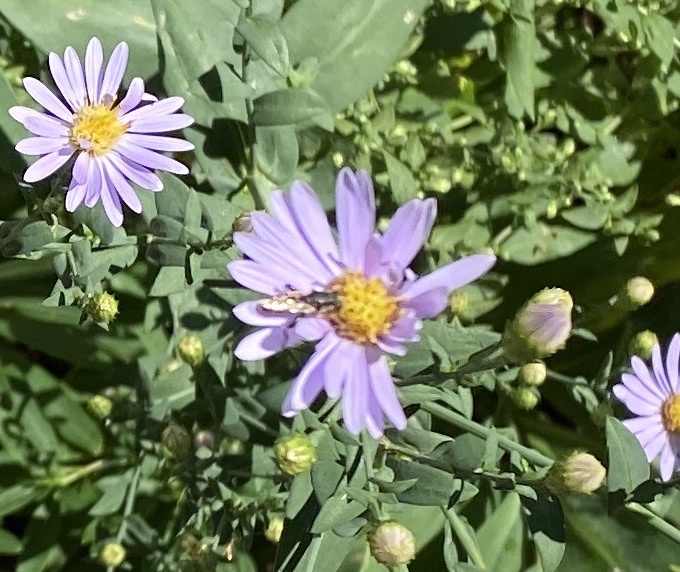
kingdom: Animalia
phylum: Arthropoda
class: Insecta
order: Diptera
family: Syrphidae
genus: Syritta
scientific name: Syritta
